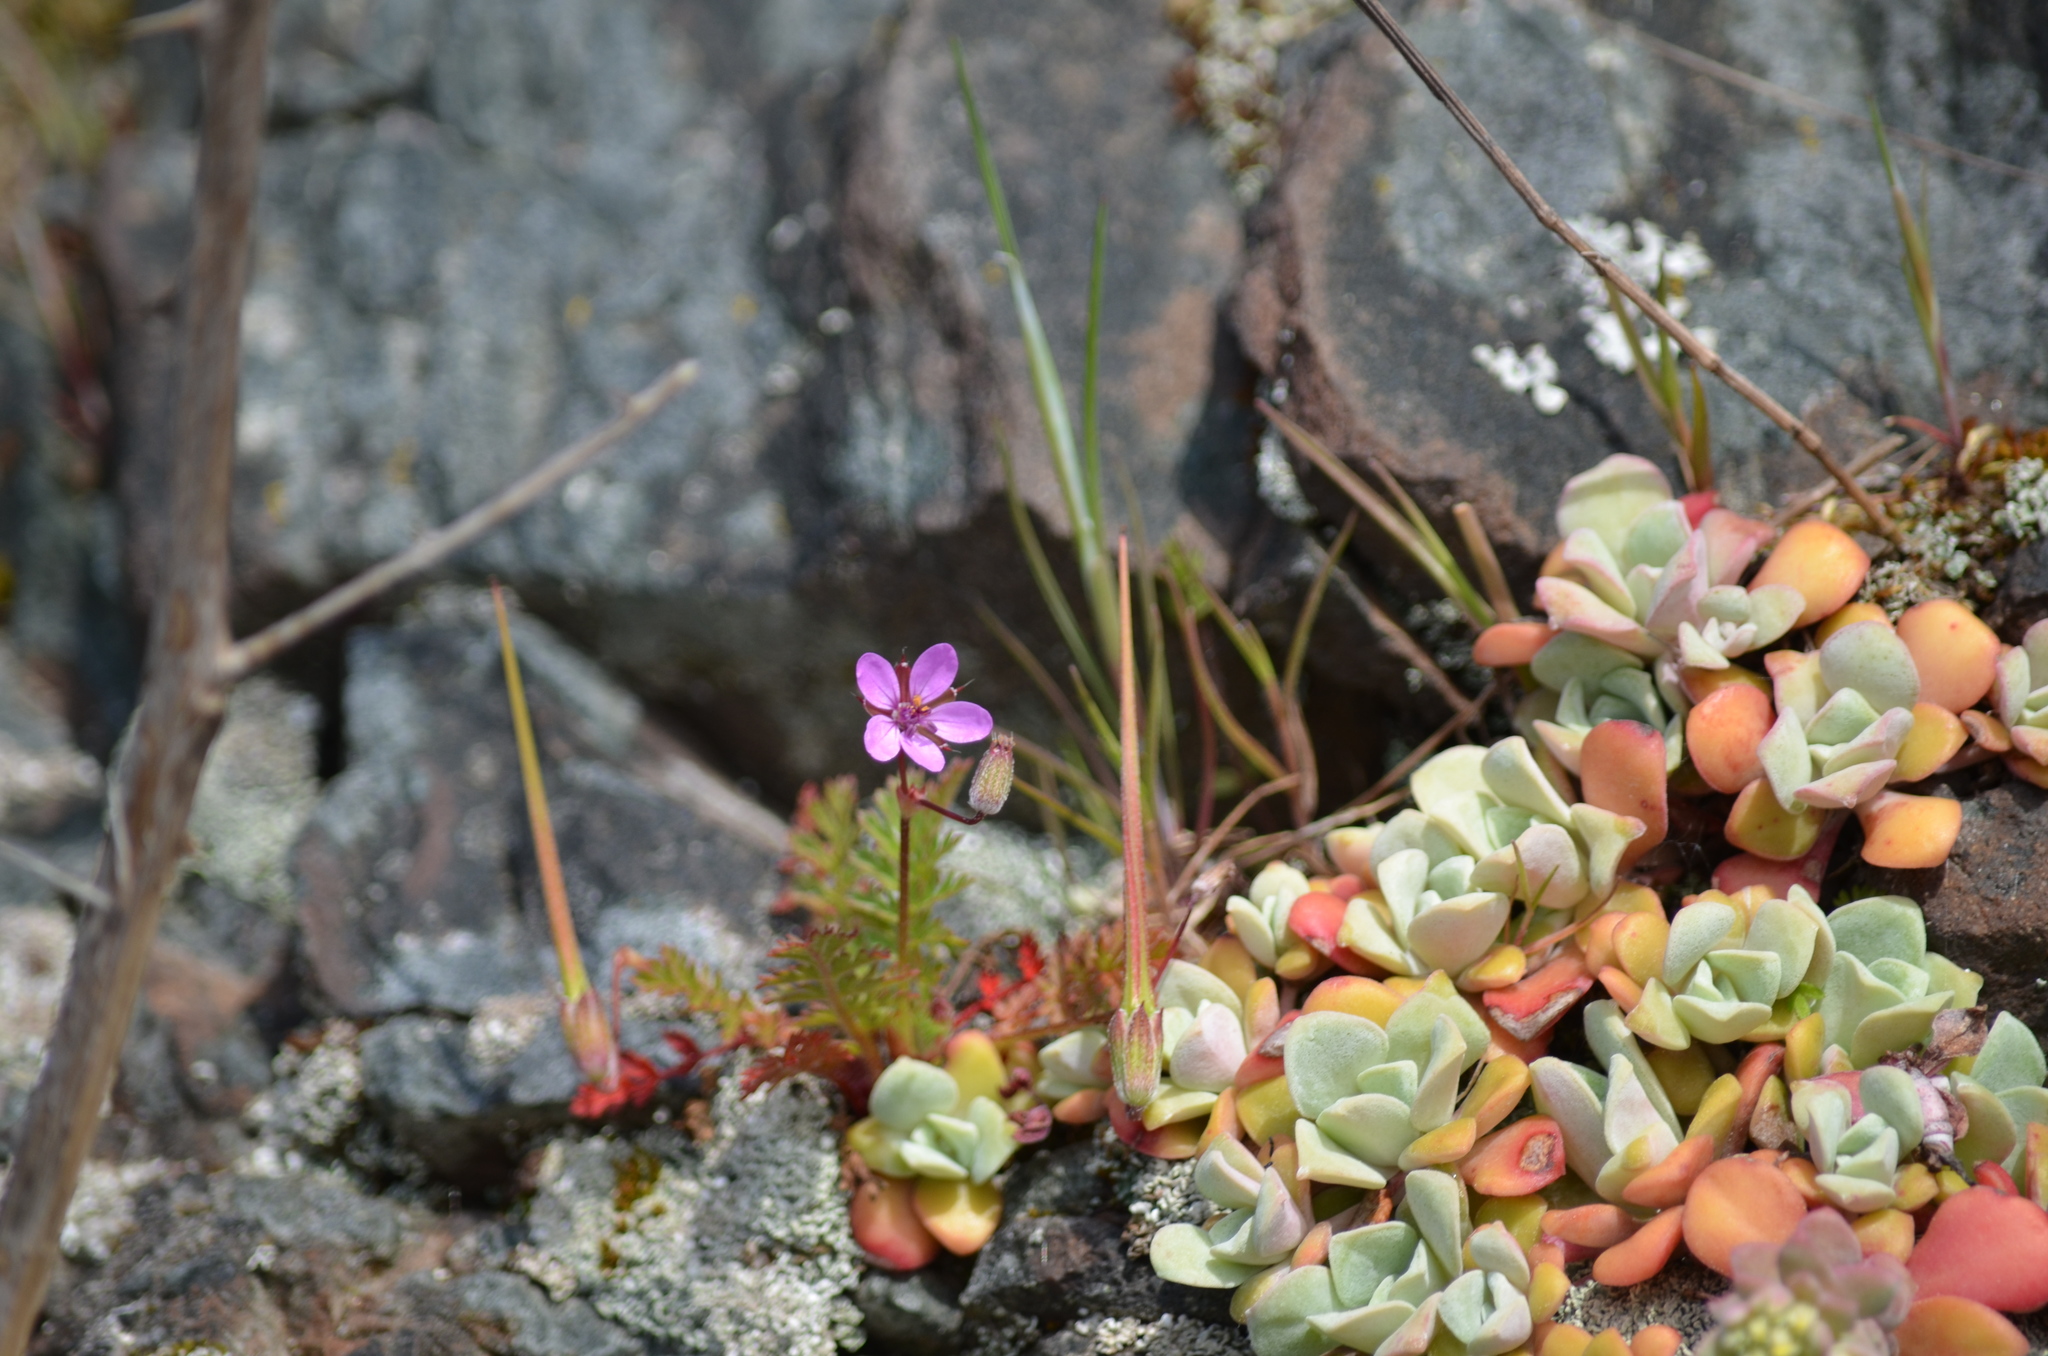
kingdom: Plantae
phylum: Tracheophyta
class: Magnoliopsida
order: Geraniales
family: Geraniaceae
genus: Erodium
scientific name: Erodium cicutarium
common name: Common stork's-bill
